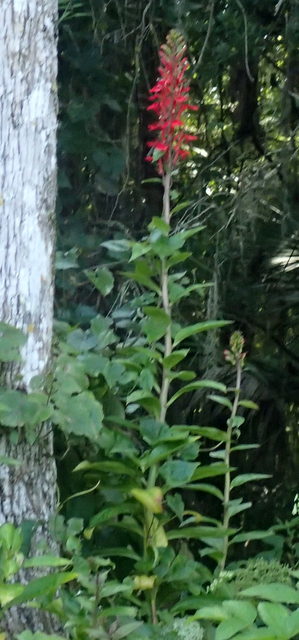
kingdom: Plantae
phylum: Tracheophyta
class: Magnoliopsida
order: Asterales
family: Campanulaceae
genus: Lobelia
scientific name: Lobelia cardinalis
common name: Cardinal flower
